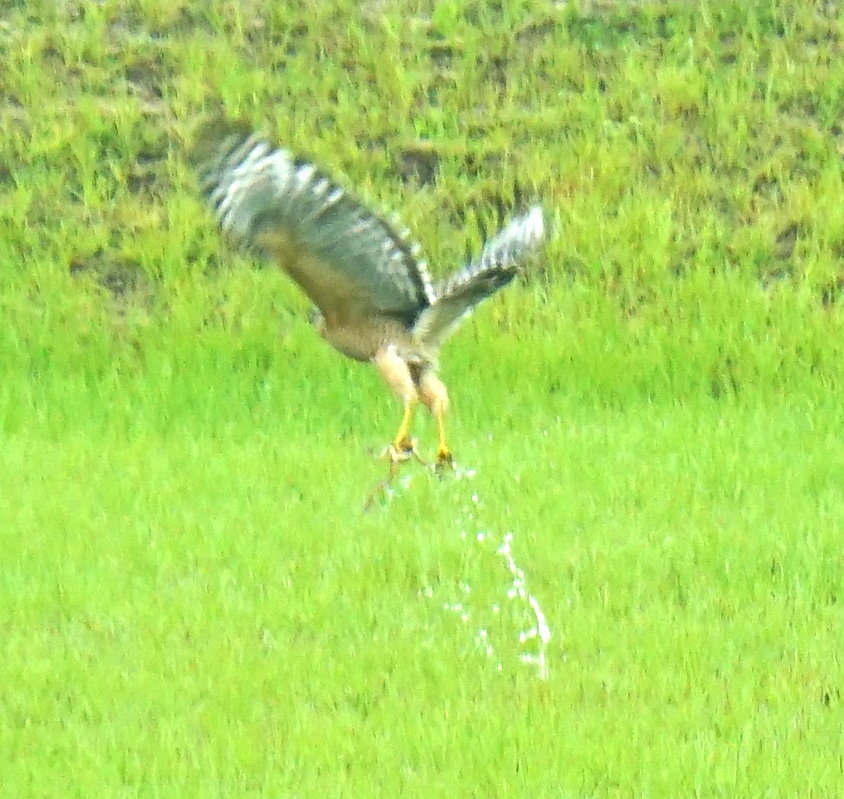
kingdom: Animalia
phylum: Chordata
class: Aves
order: Accipitriformes
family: Accipitridae
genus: Buteo
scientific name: Buteo lineatus
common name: Red-shouldered hawk
